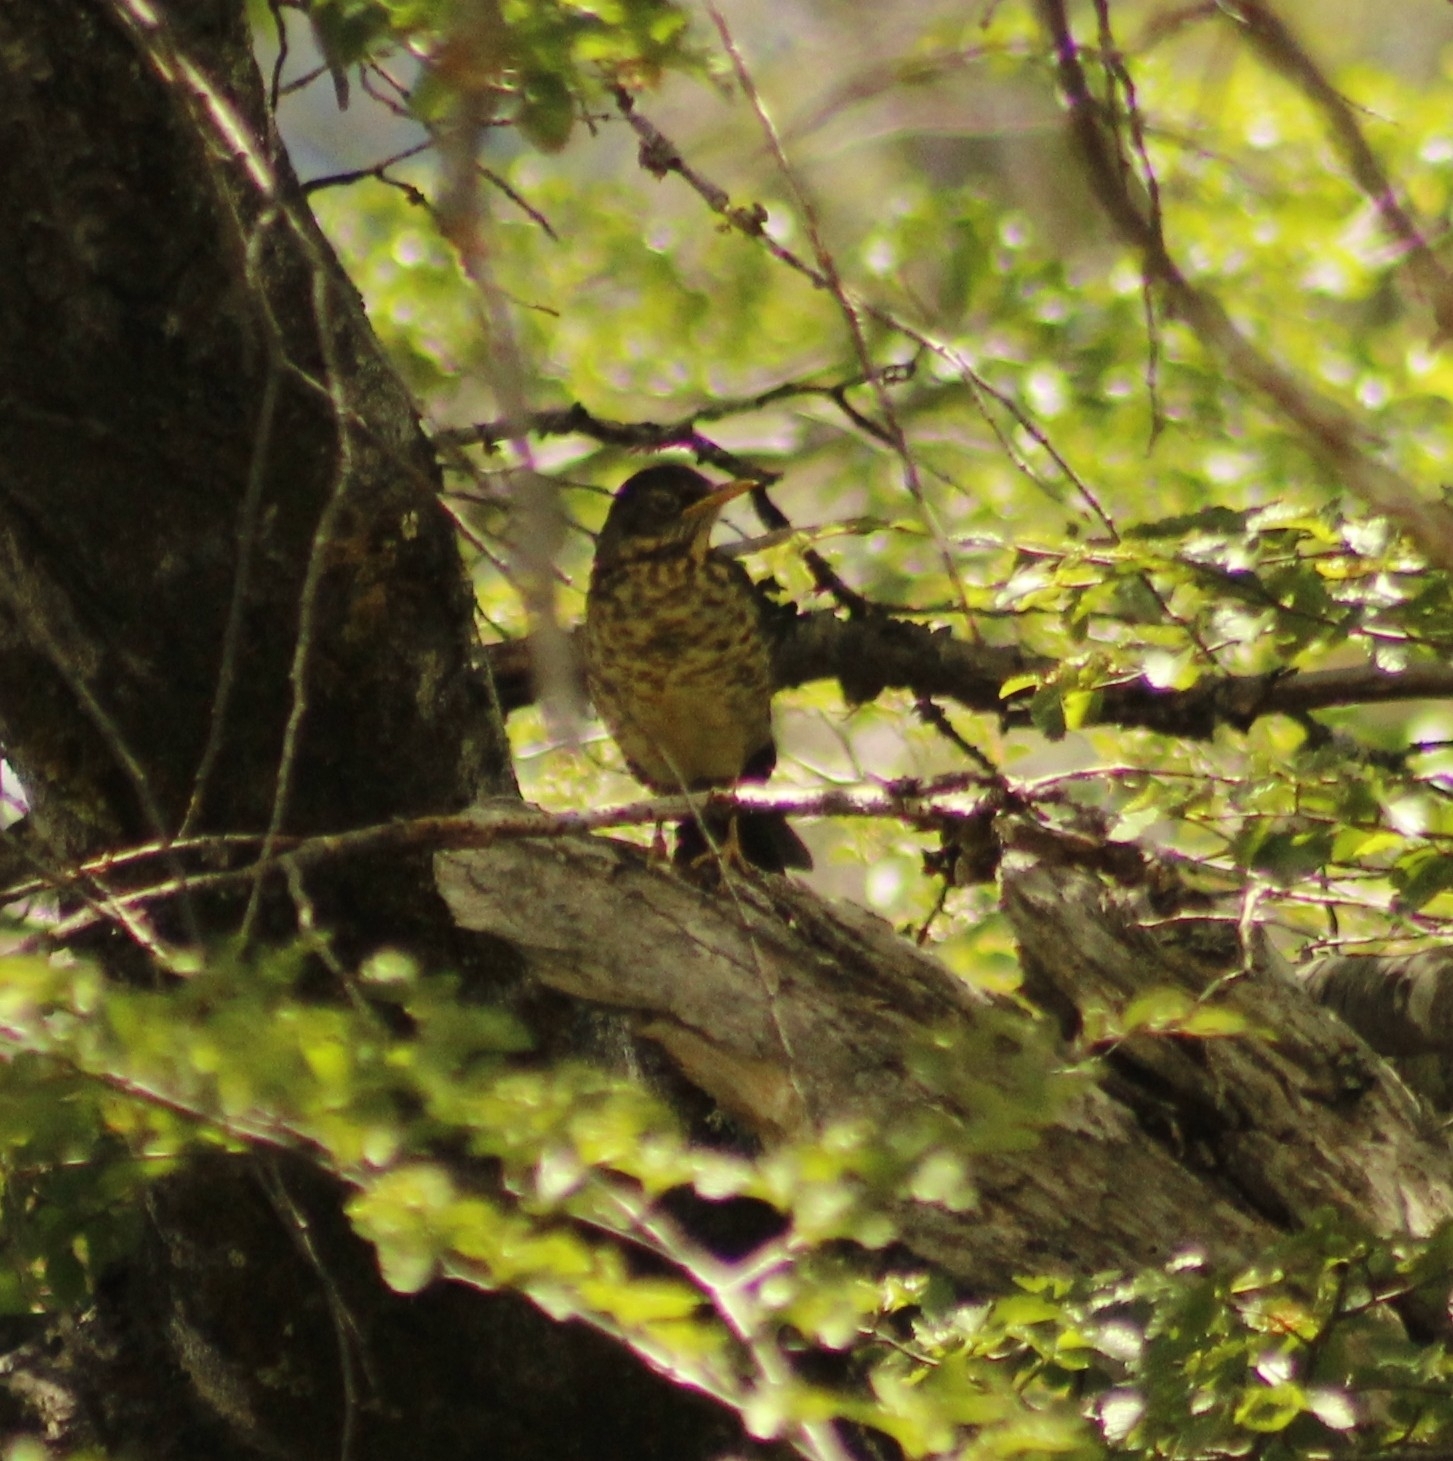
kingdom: Animalia
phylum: Chordata
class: Aves
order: Passeriformes
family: Turdidae
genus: Turdus
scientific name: Turdus falcklandii
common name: Austral thrush
